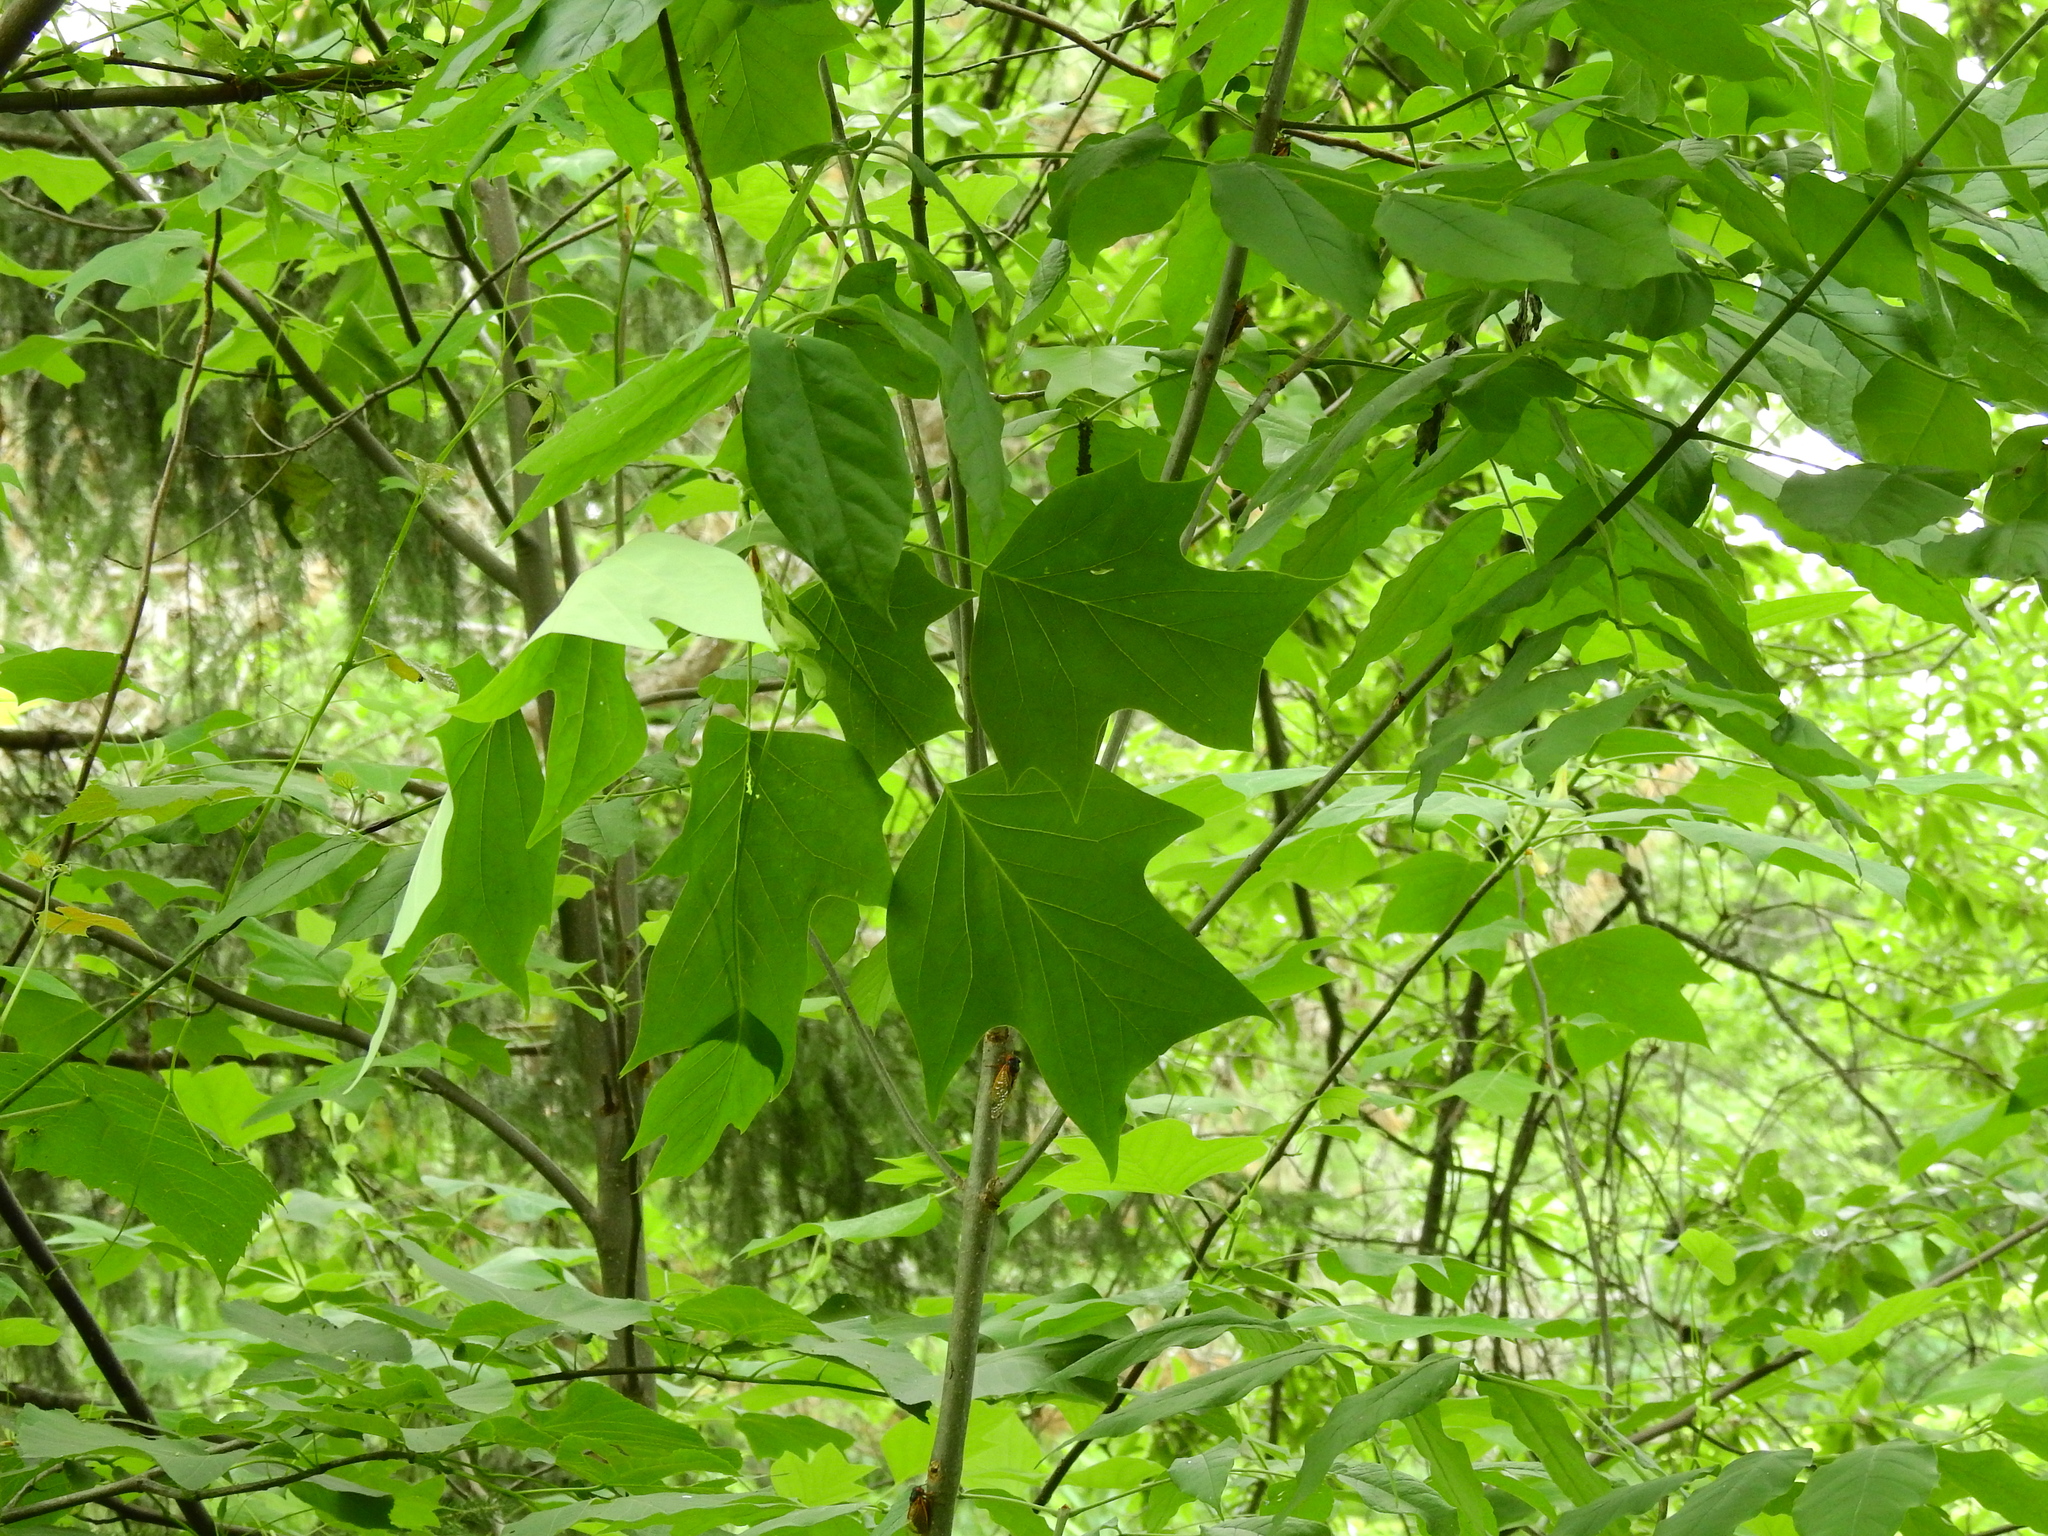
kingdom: Plantae
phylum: Tracheophyta
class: Magnoliopsida
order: Magnoliales
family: Magnoliaceae
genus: Liriodendron
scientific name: Liriodendron tulipifera
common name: Tulip tree
